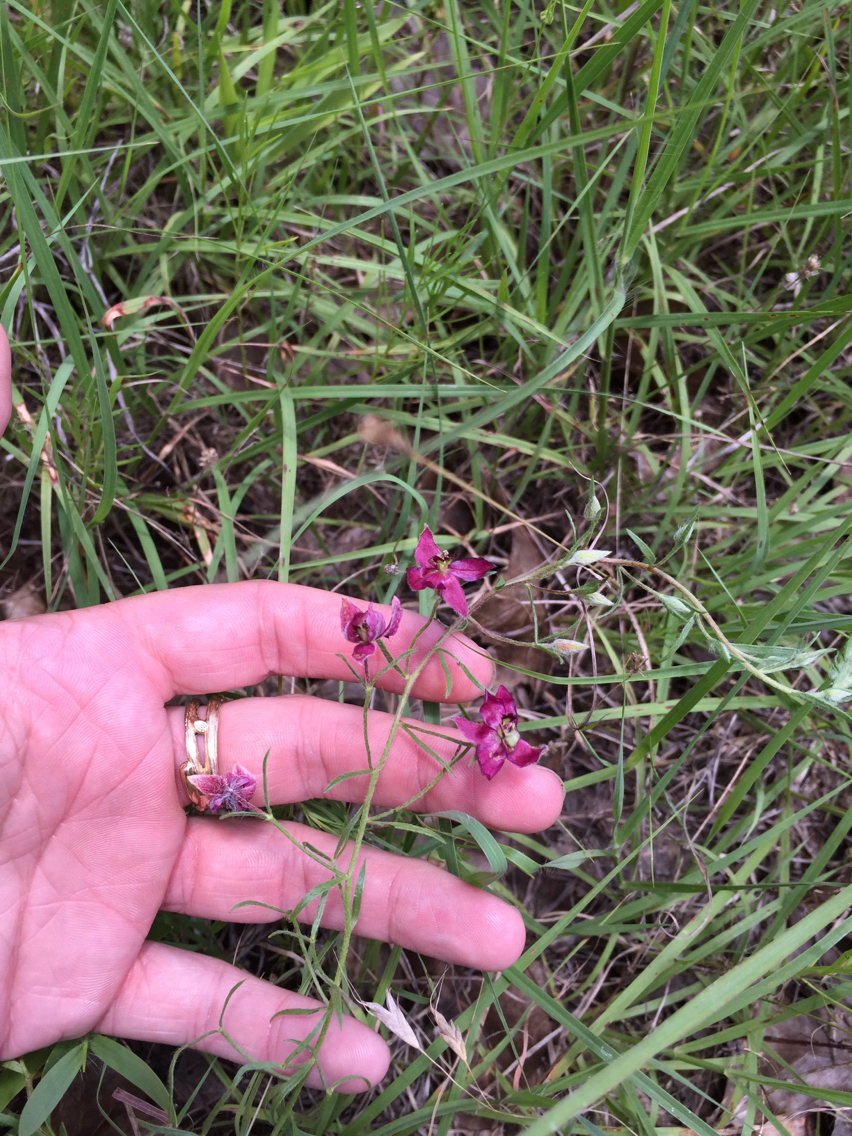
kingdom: Plantae
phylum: Tracheophyta
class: Magnoliopsida
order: Zygophyllales
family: Krameriaceae
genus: Krameria
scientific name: Krameria lanceolata
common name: Ratany
